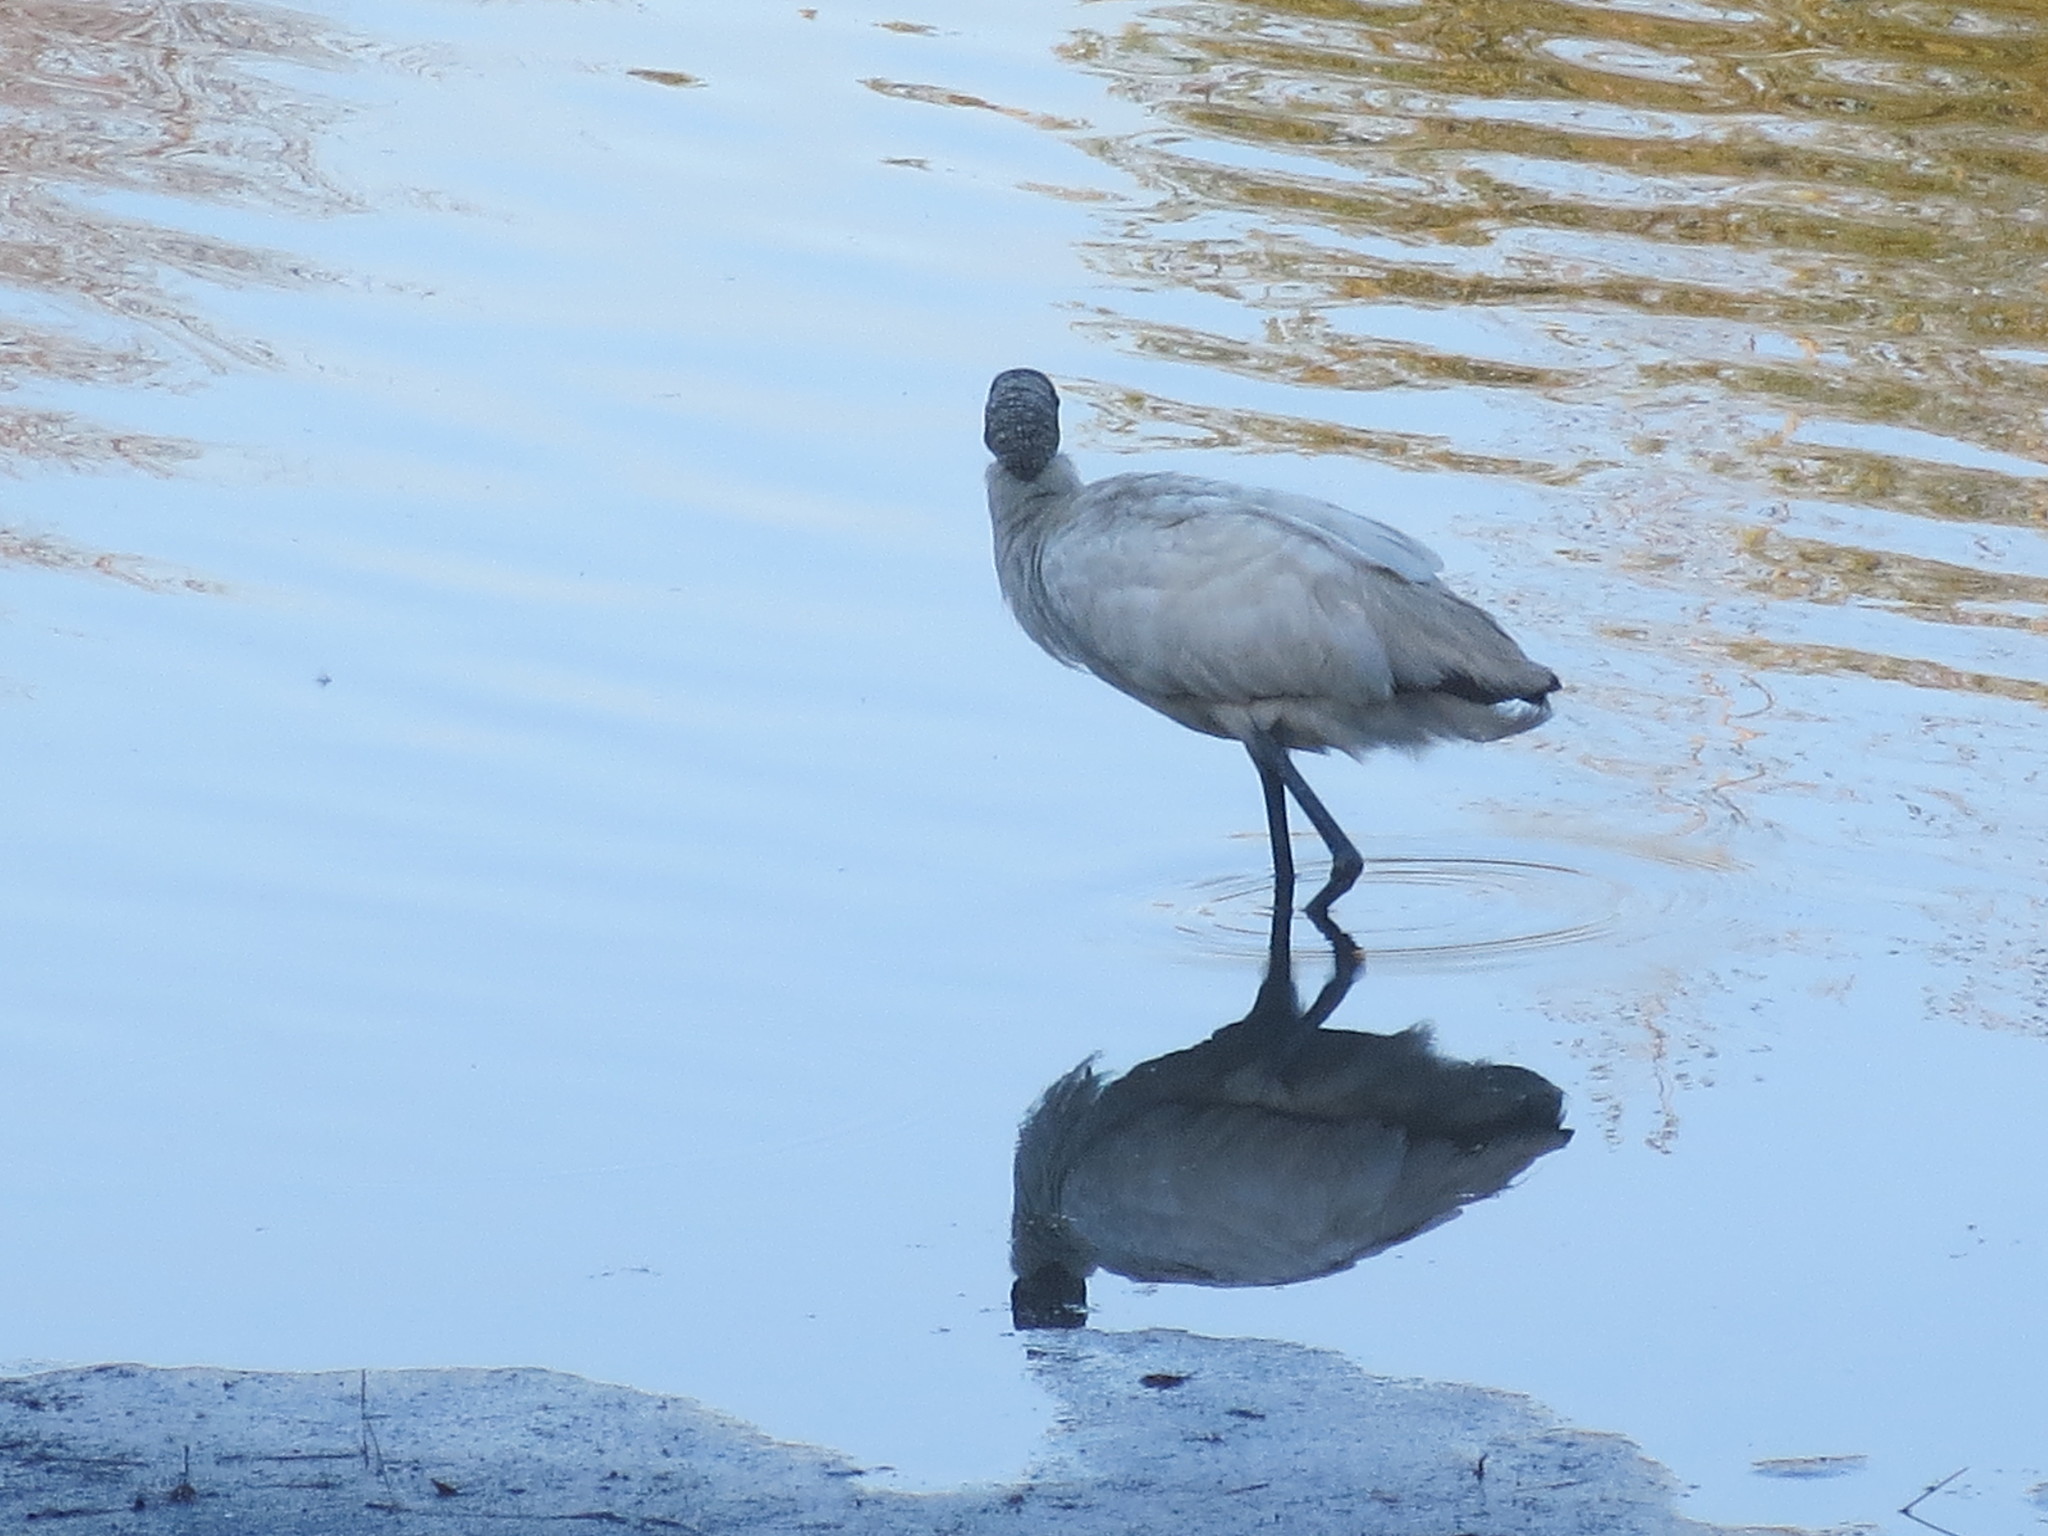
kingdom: Animalia
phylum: Chordata
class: Aves
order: Ciconiiformes
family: Ciconiidae
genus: Mycteria
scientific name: Mycteria americana
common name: Wood stork
